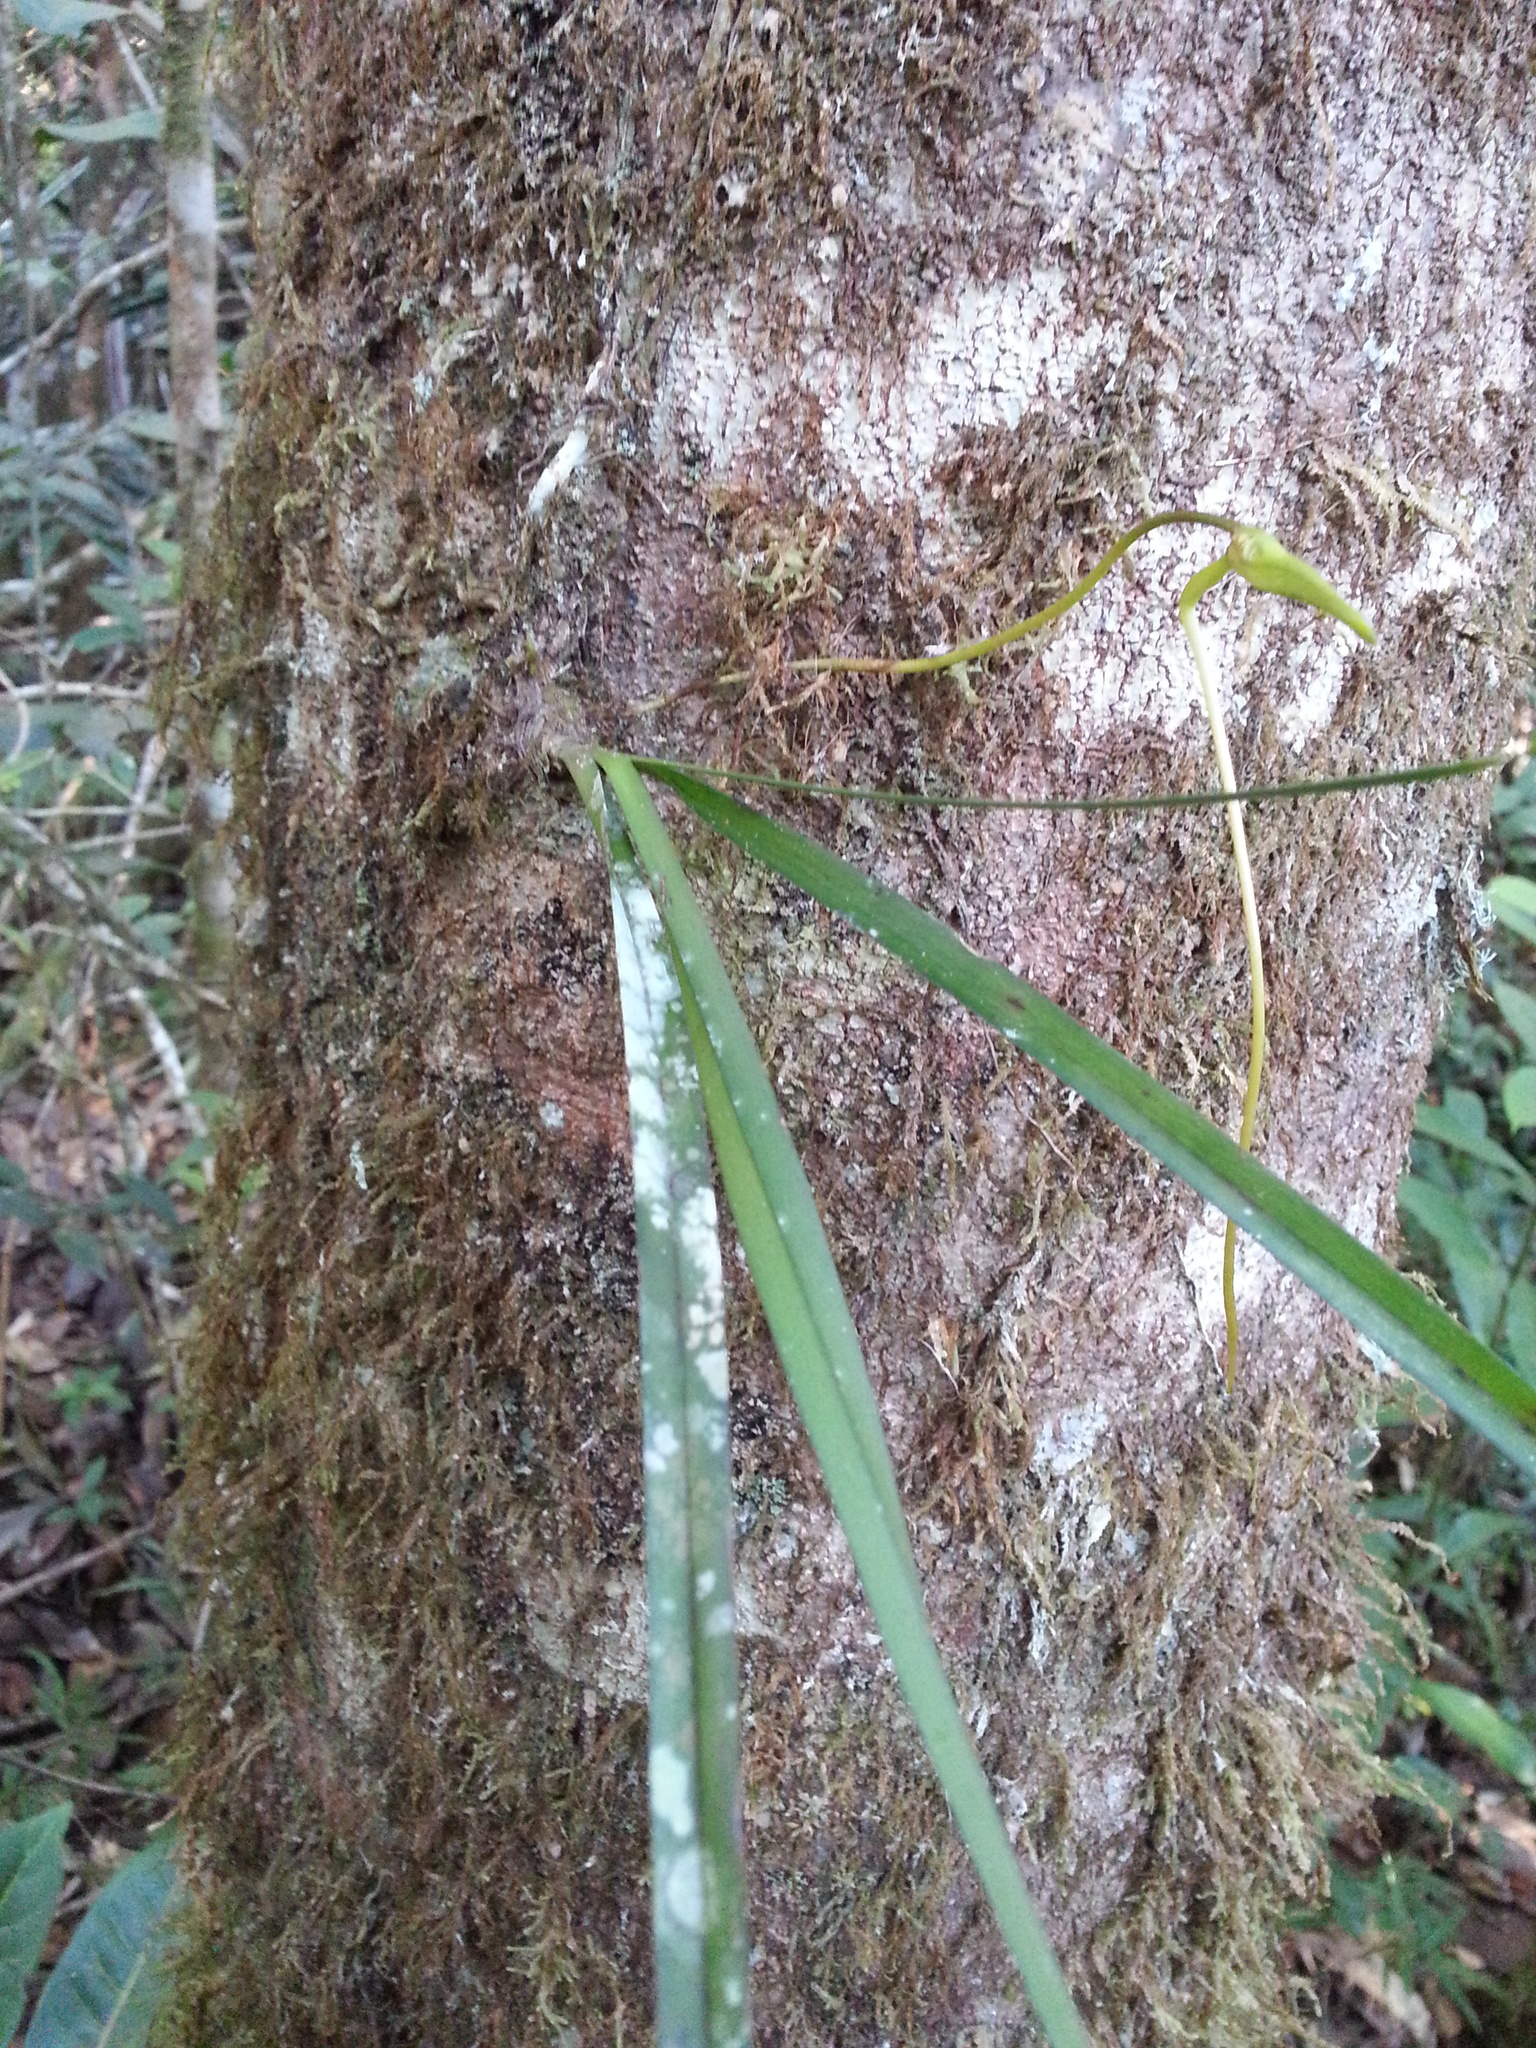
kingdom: Plantae
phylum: Tracheophyta
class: Liliopsida
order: Asparagales
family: Orchidaceae
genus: Jumellea
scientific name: Jumellea stenophylla
